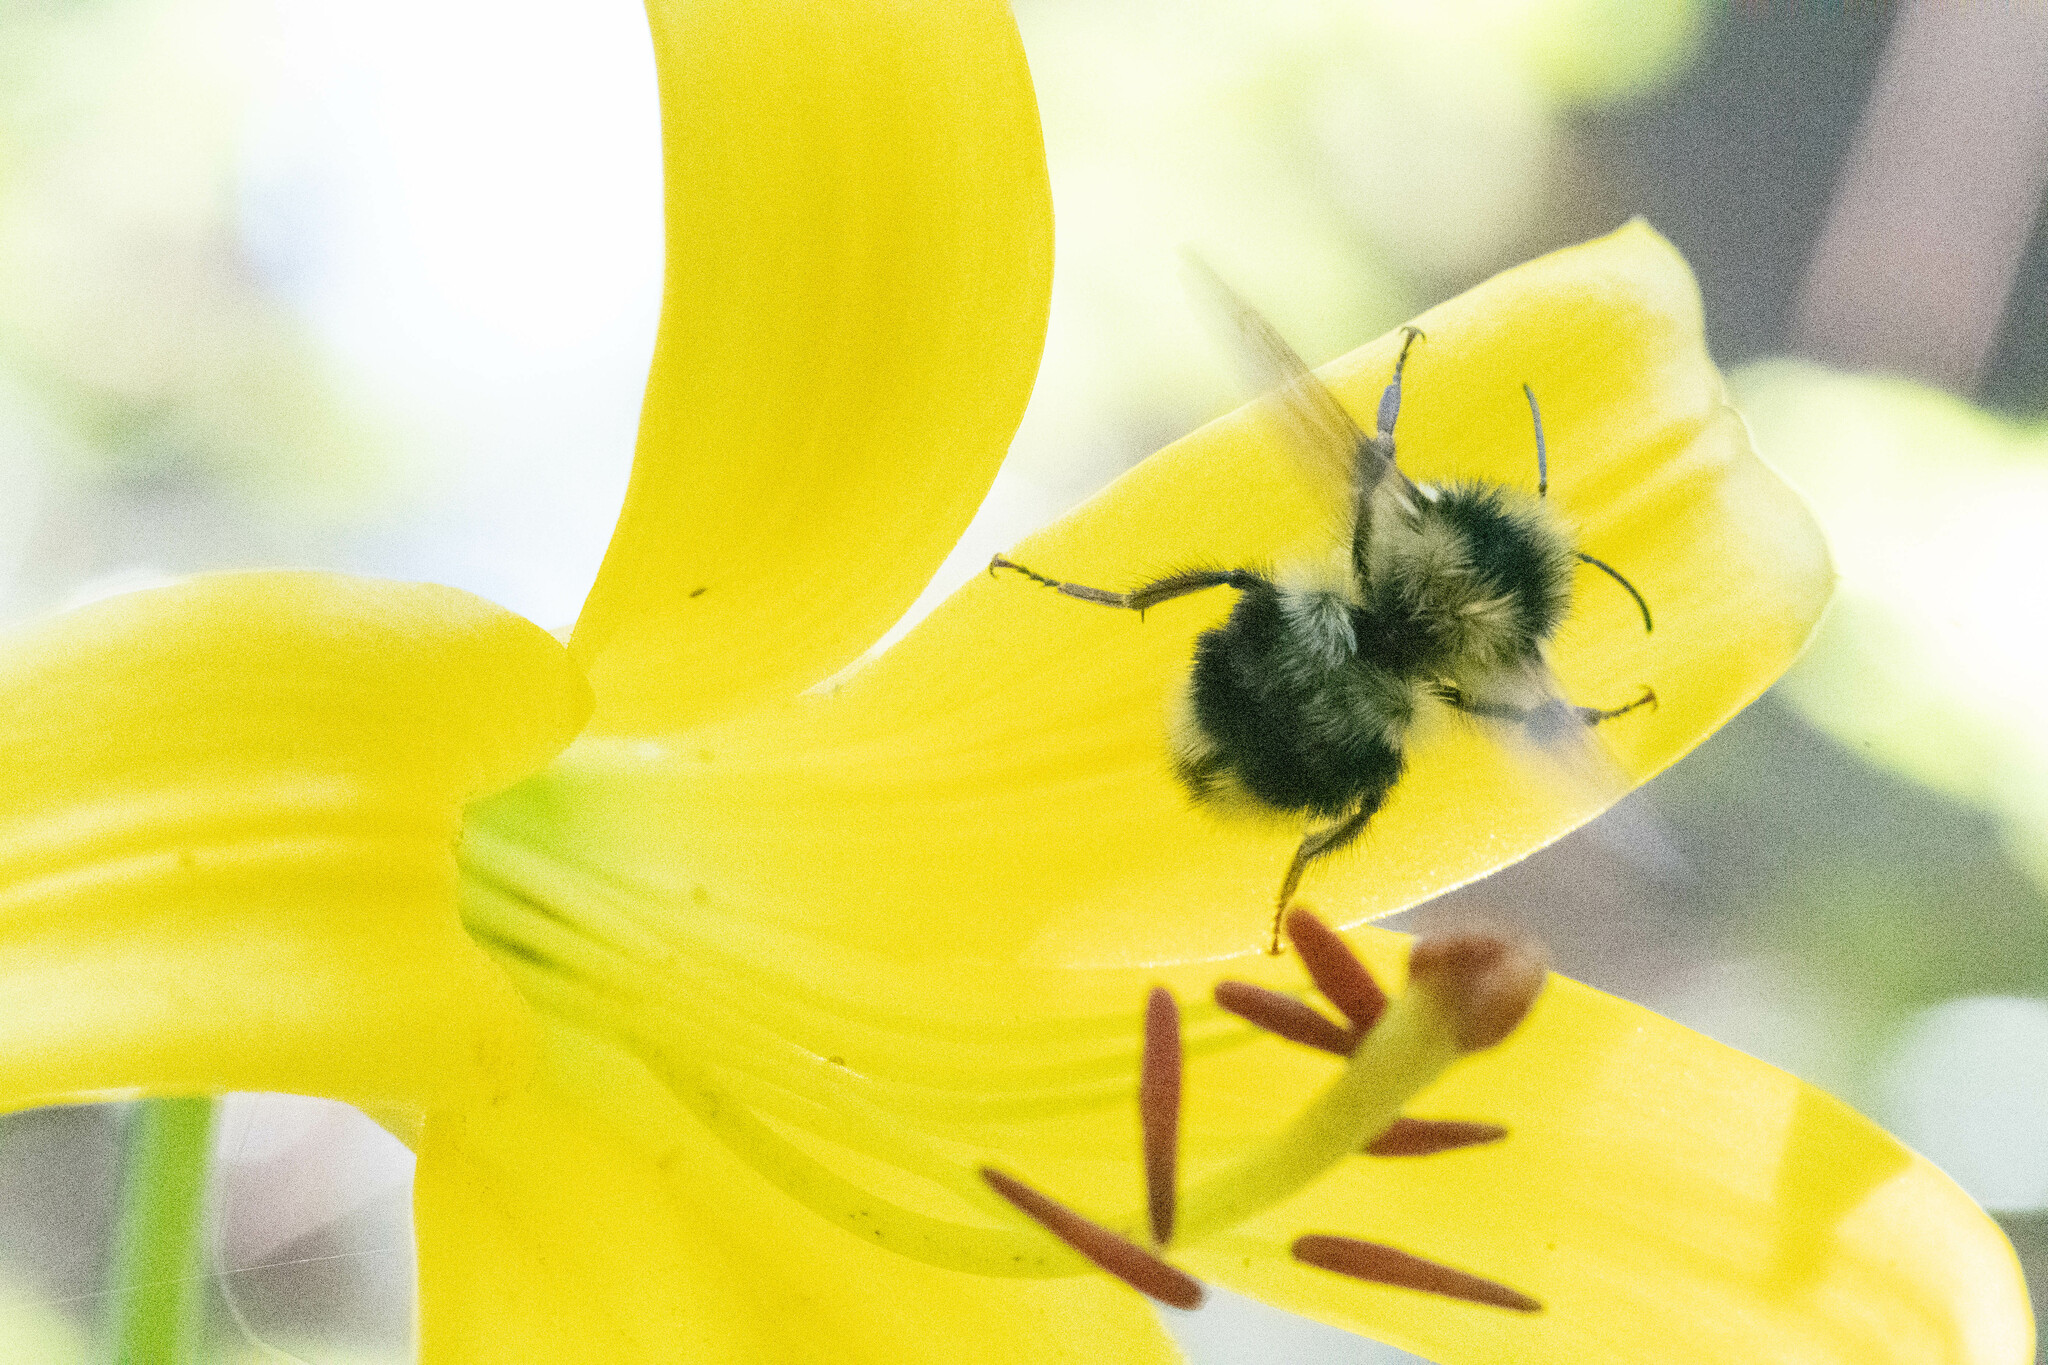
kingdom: Animalia
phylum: Arthropoda
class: Insecta
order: Hymenoptera
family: Apidae
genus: Bombus
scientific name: Bombus melanopygus
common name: Black tail bumble bee
